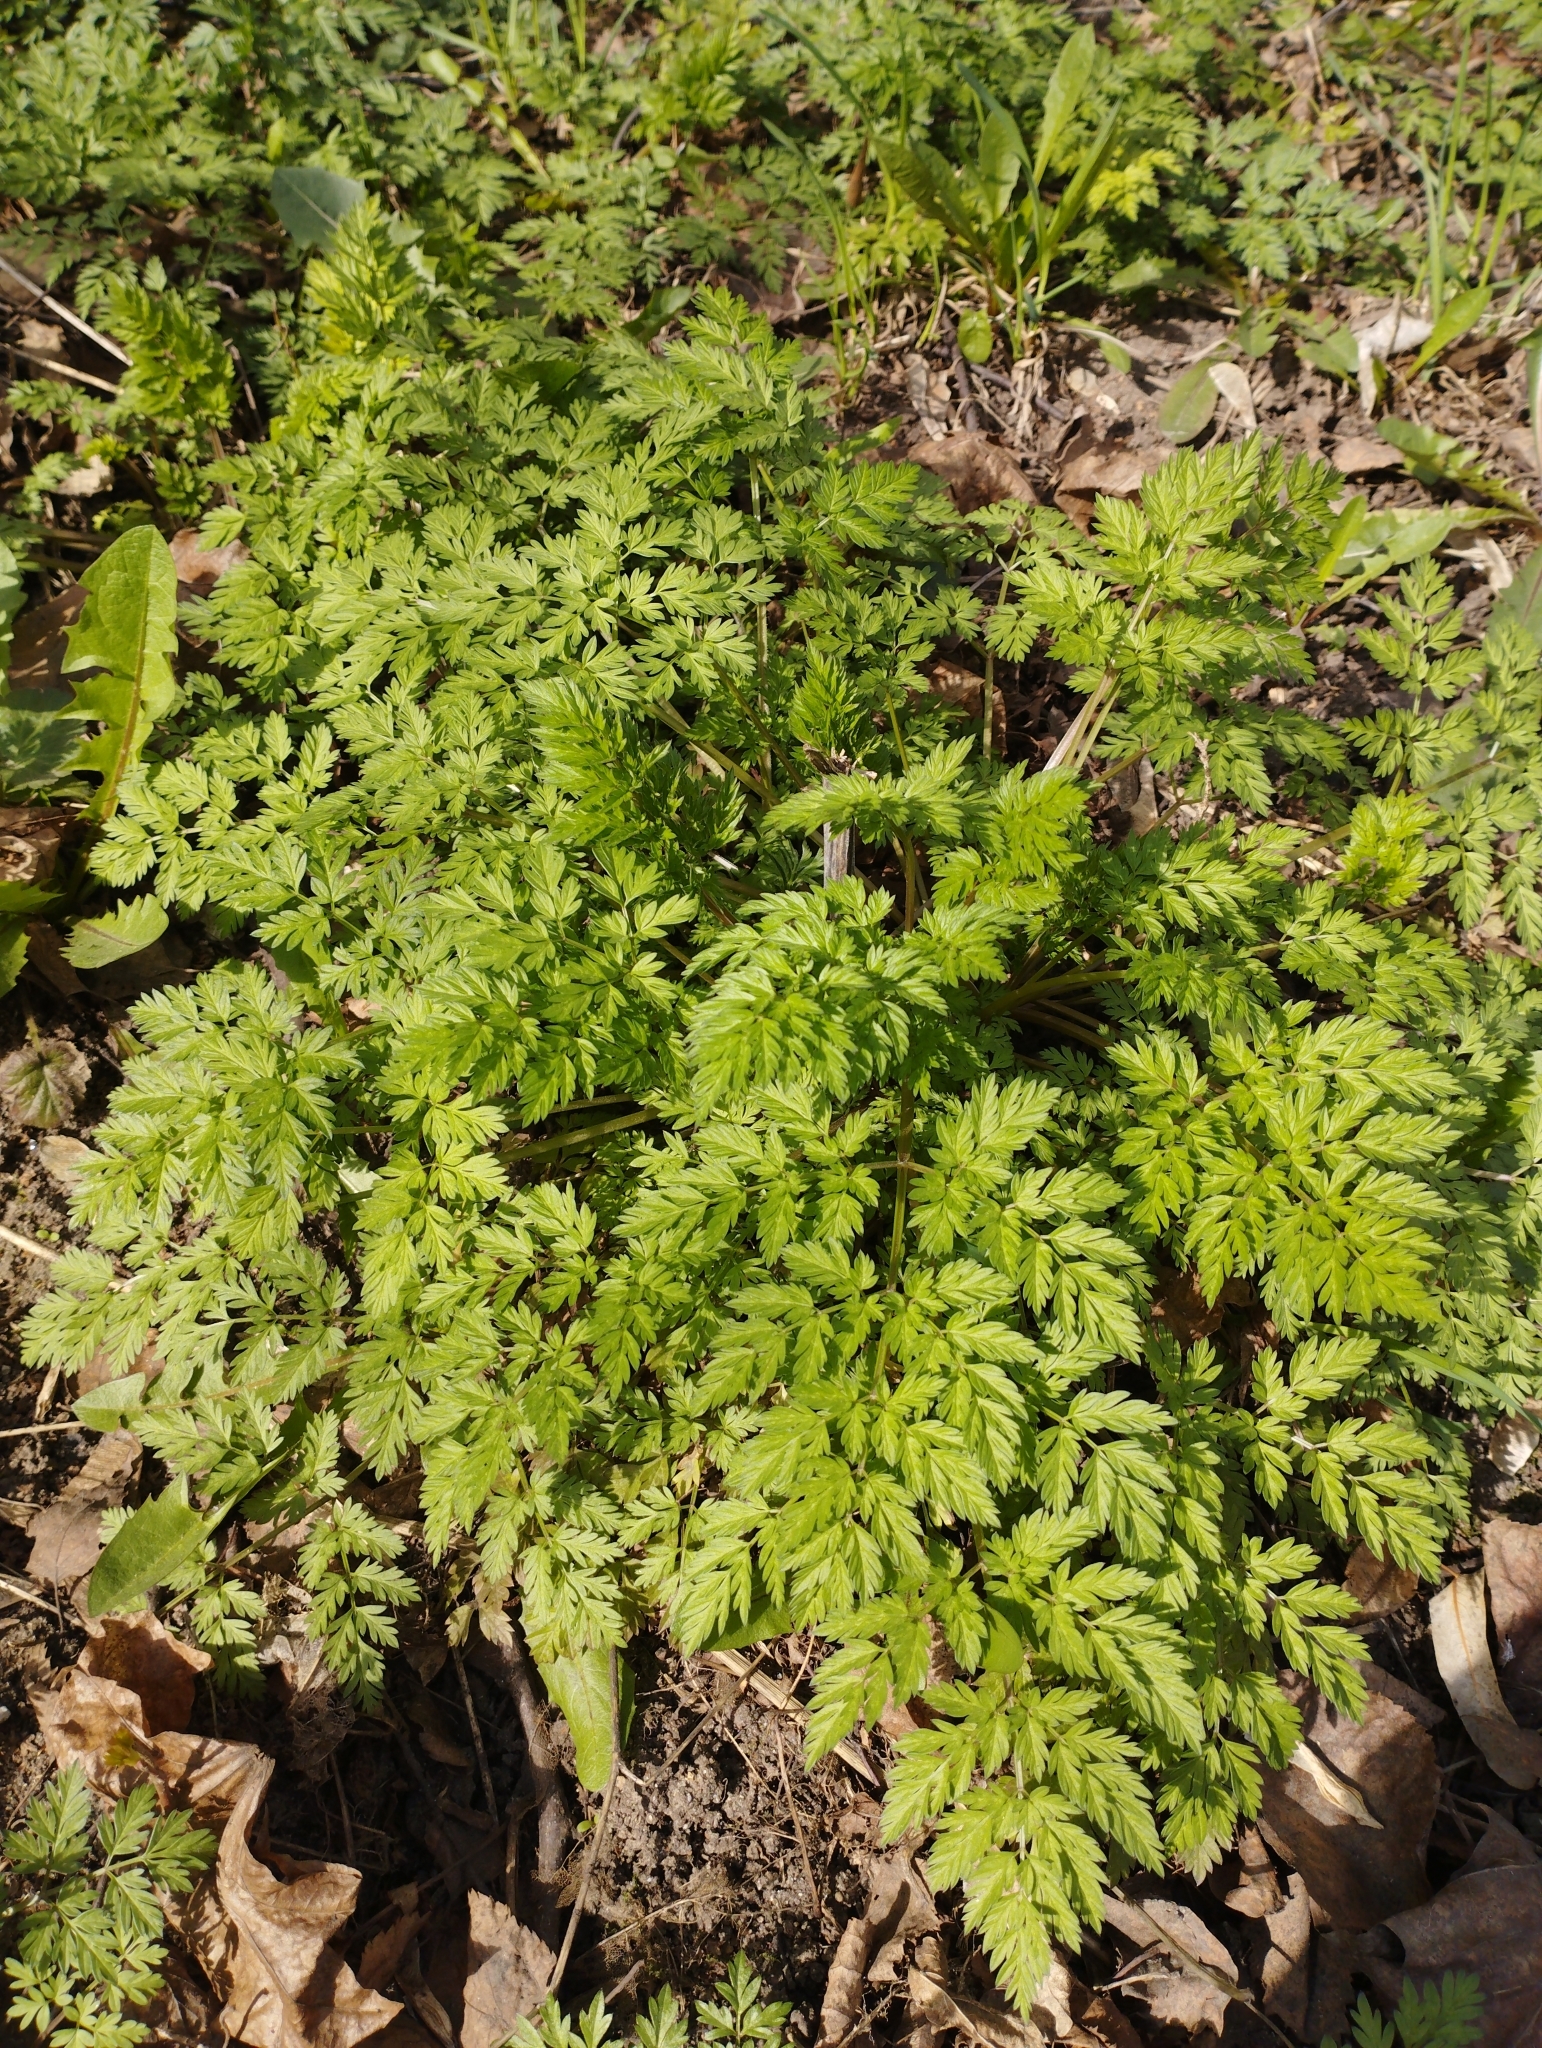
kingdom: Plantae
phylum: Tracheophyta
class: Magnoliopsida
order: Apiales
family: Apiaceae
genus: Anthriscus
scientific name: Anthriscus sylvestris
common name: Cow parsley
